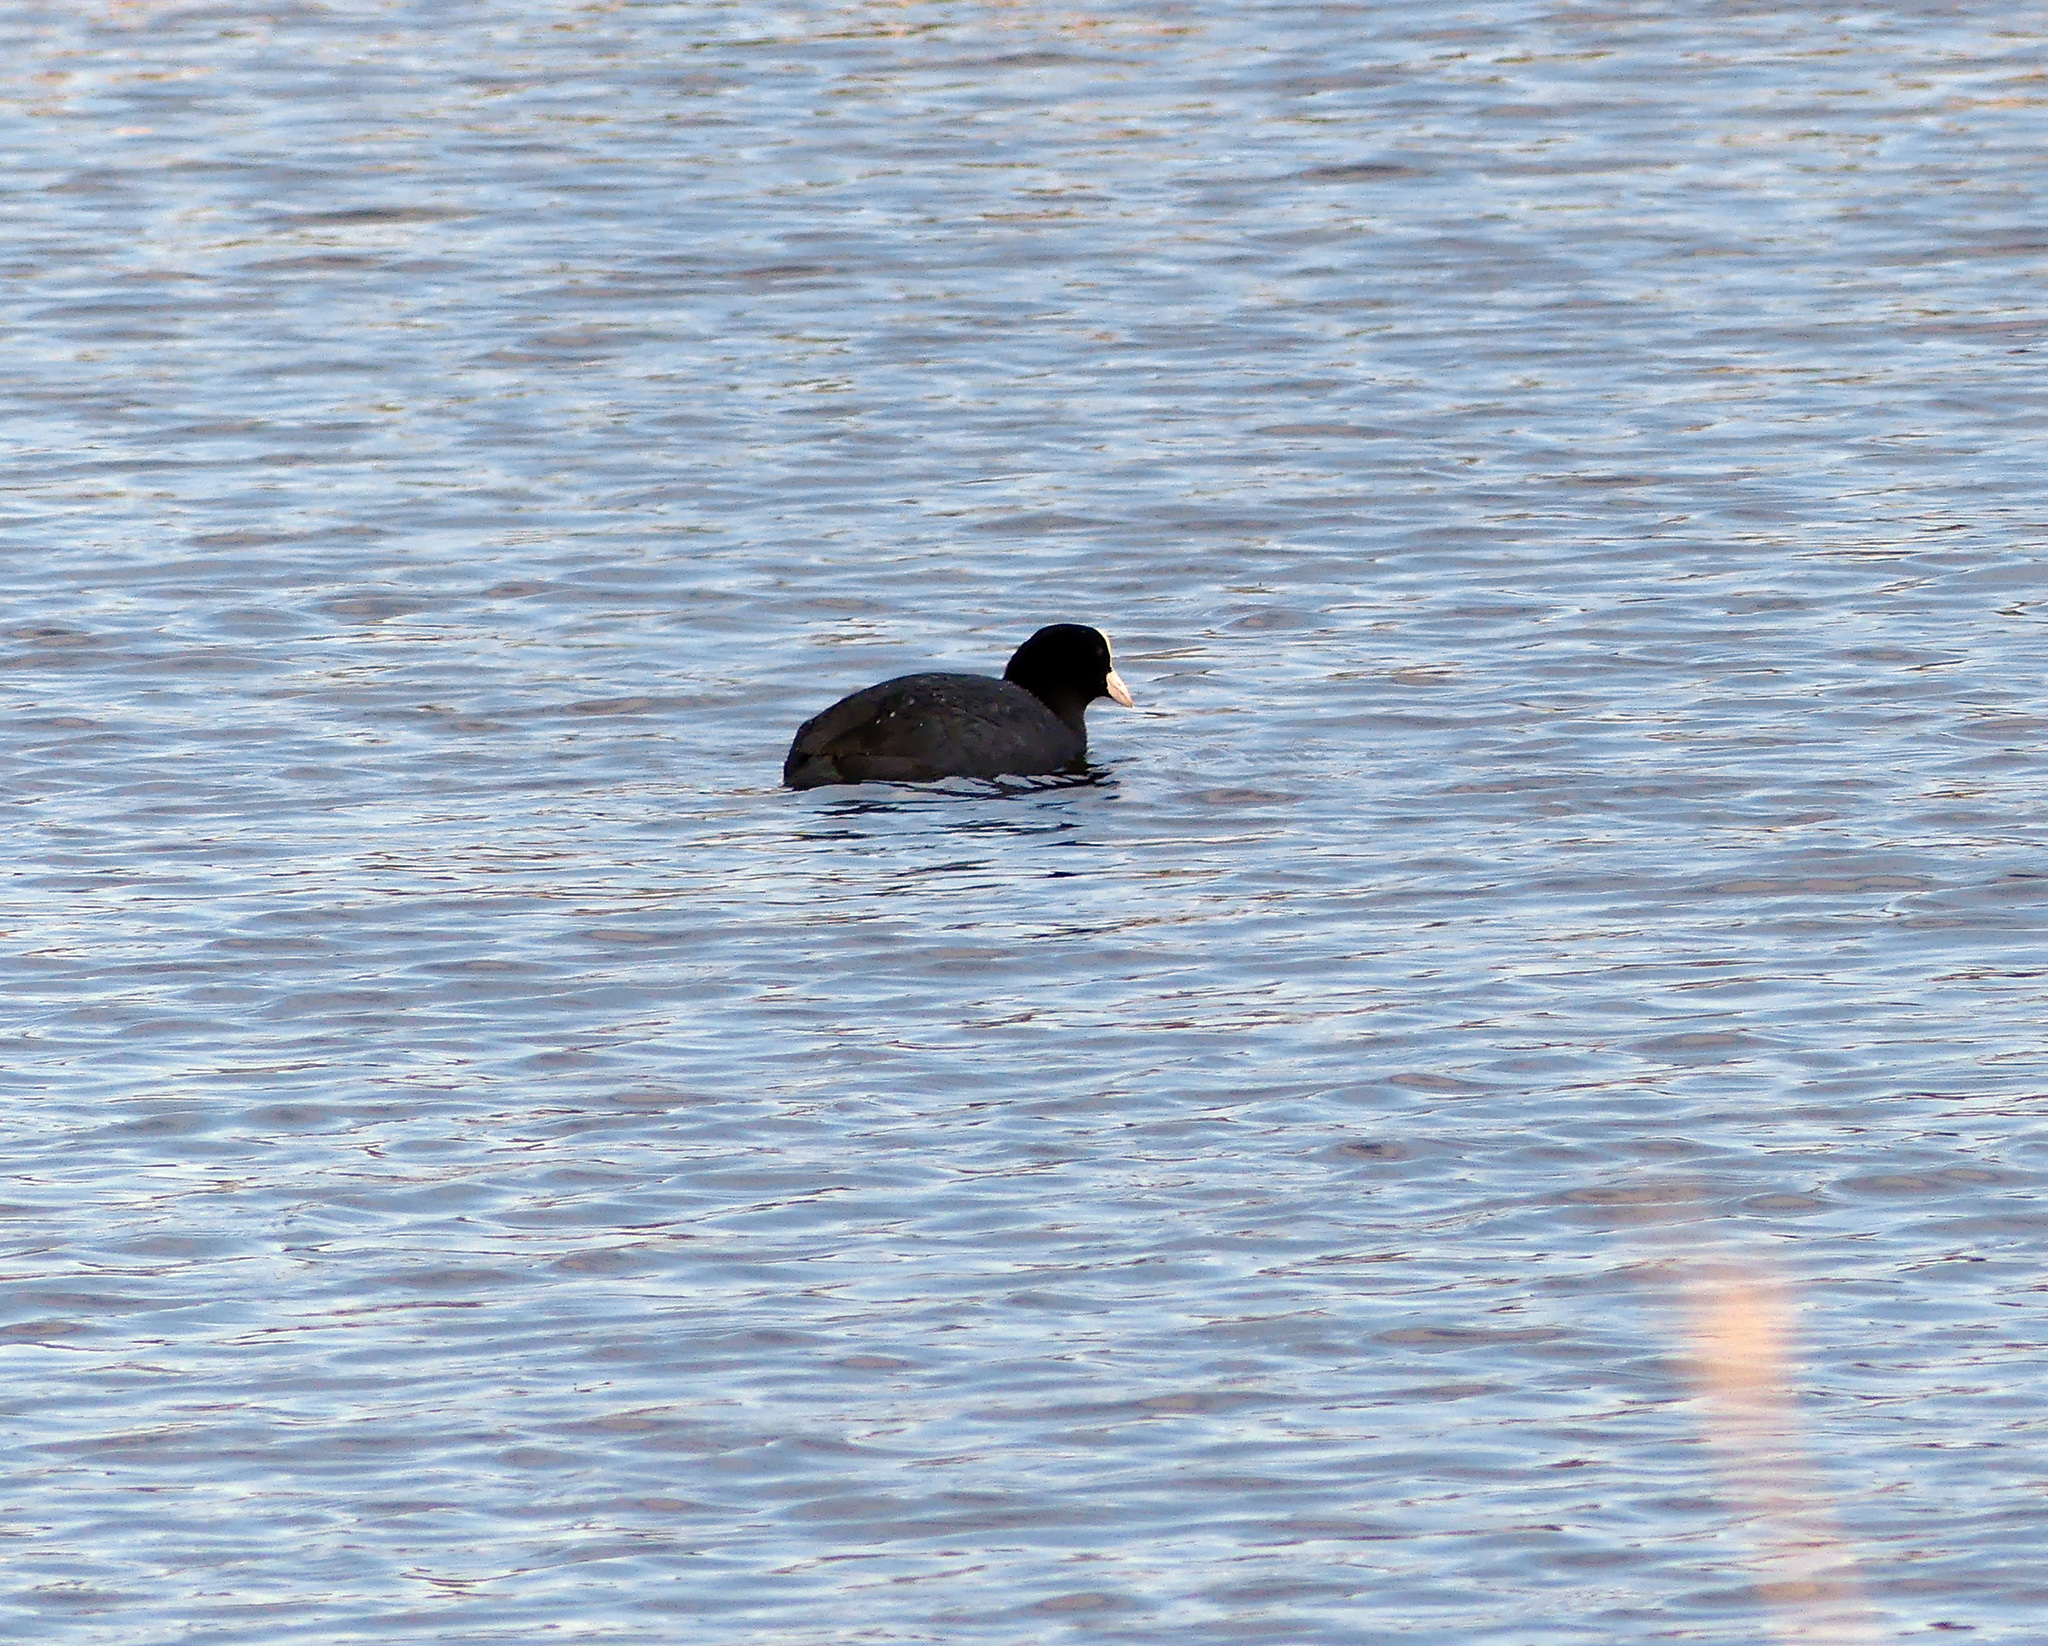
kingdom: Animalia
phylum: Chordata
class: Aves
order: Gruiformes
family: Rallidae
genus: Fulica
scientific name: Fulica atra
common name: Eurasian coot
